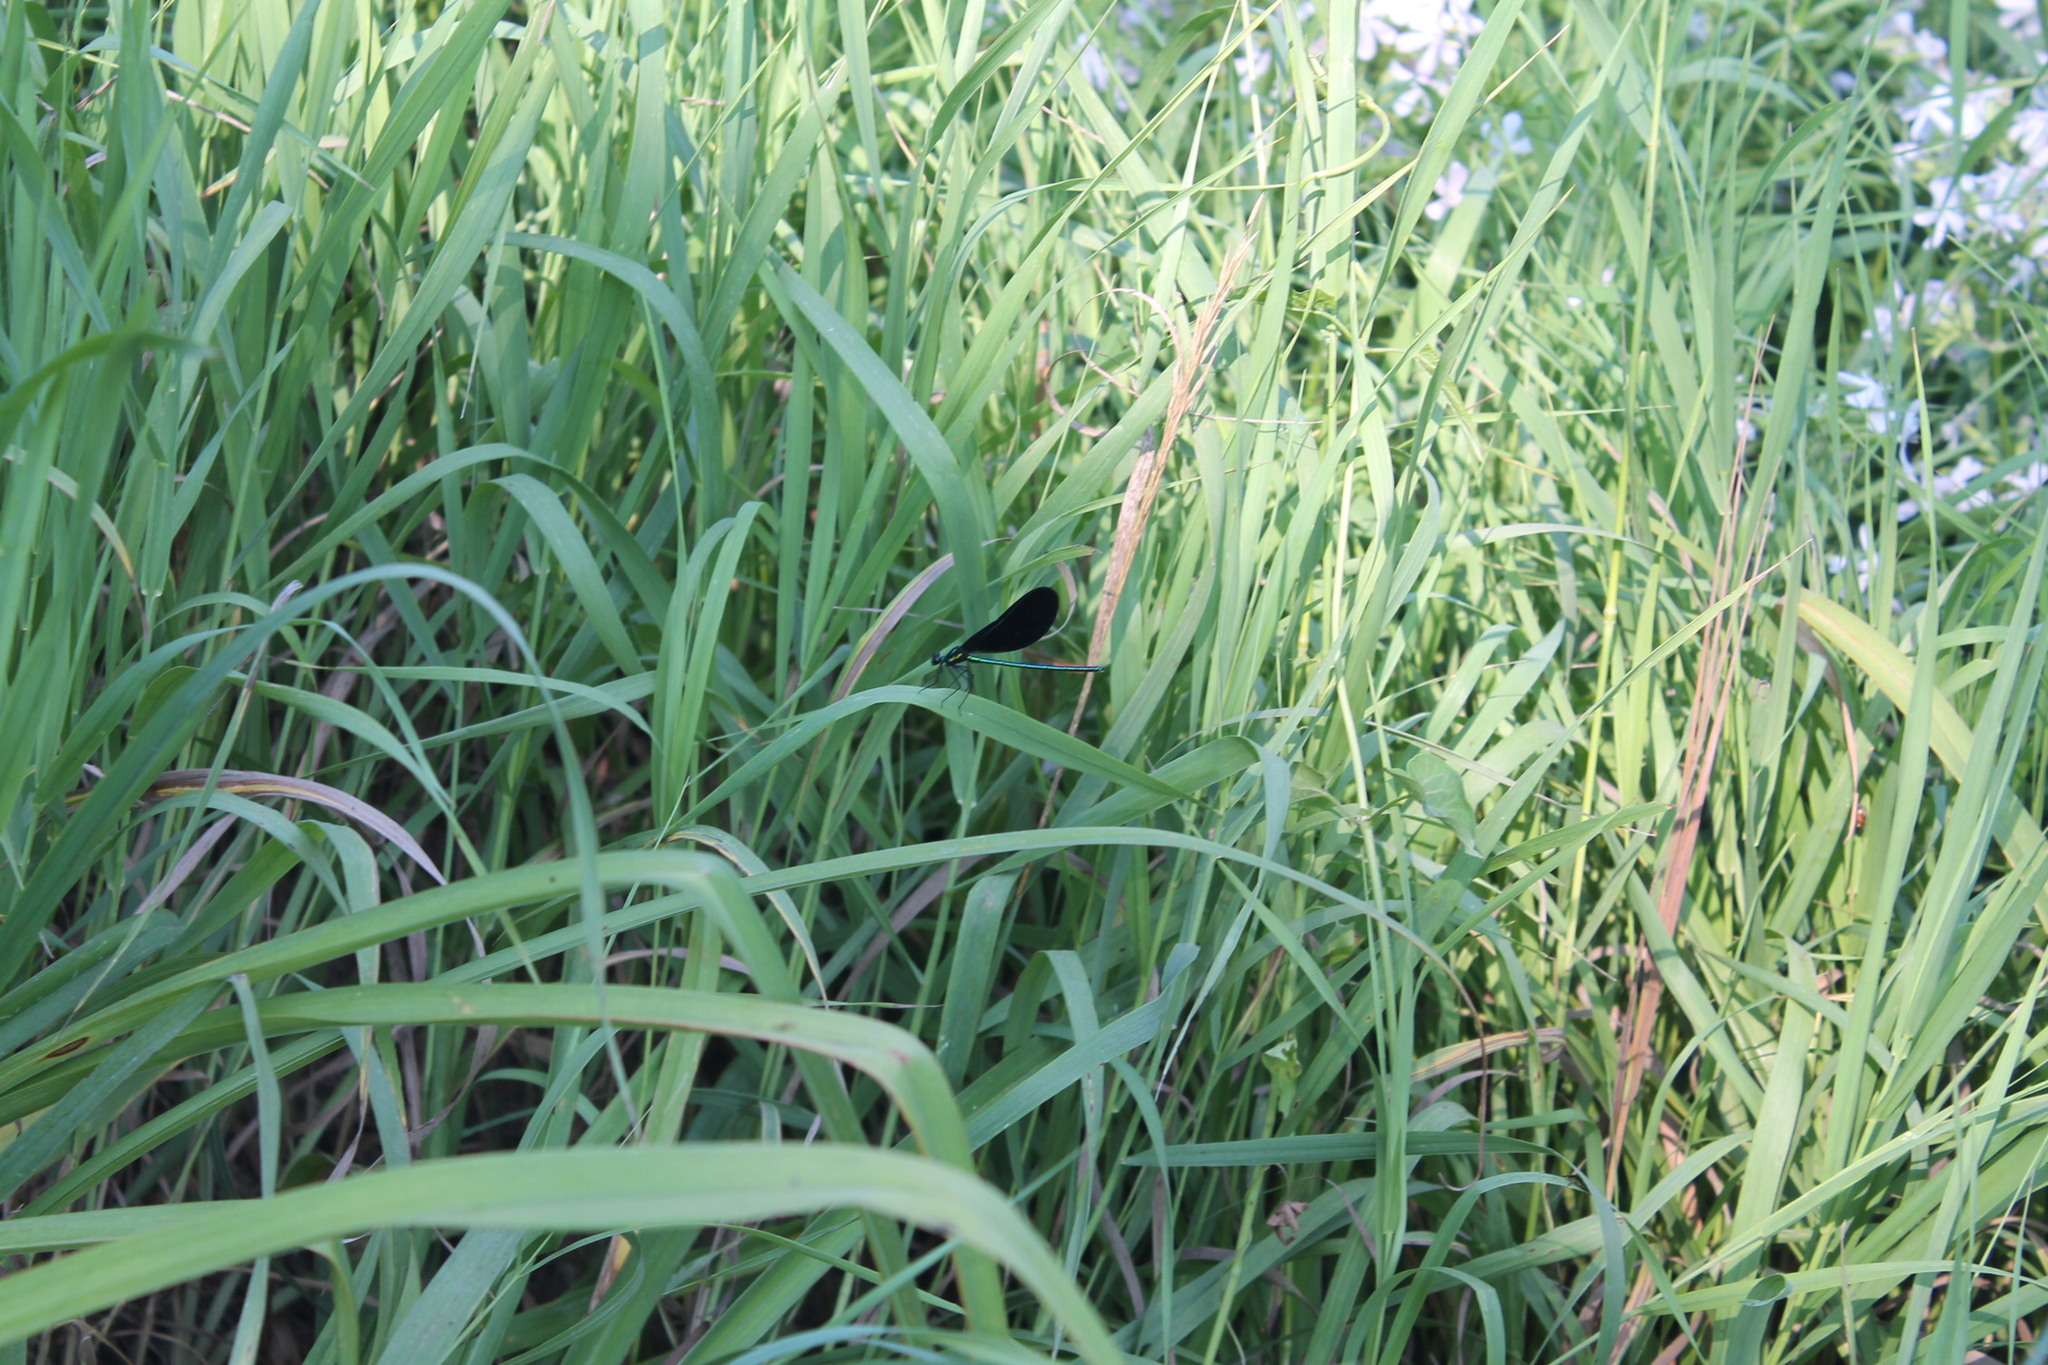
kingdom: Animalia
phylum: Arthropoda
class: Insecta
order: Odonata
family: Calopterygidae
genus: Calopteryx
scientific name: Calopteryx maculata
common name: Ebony jewelwing
